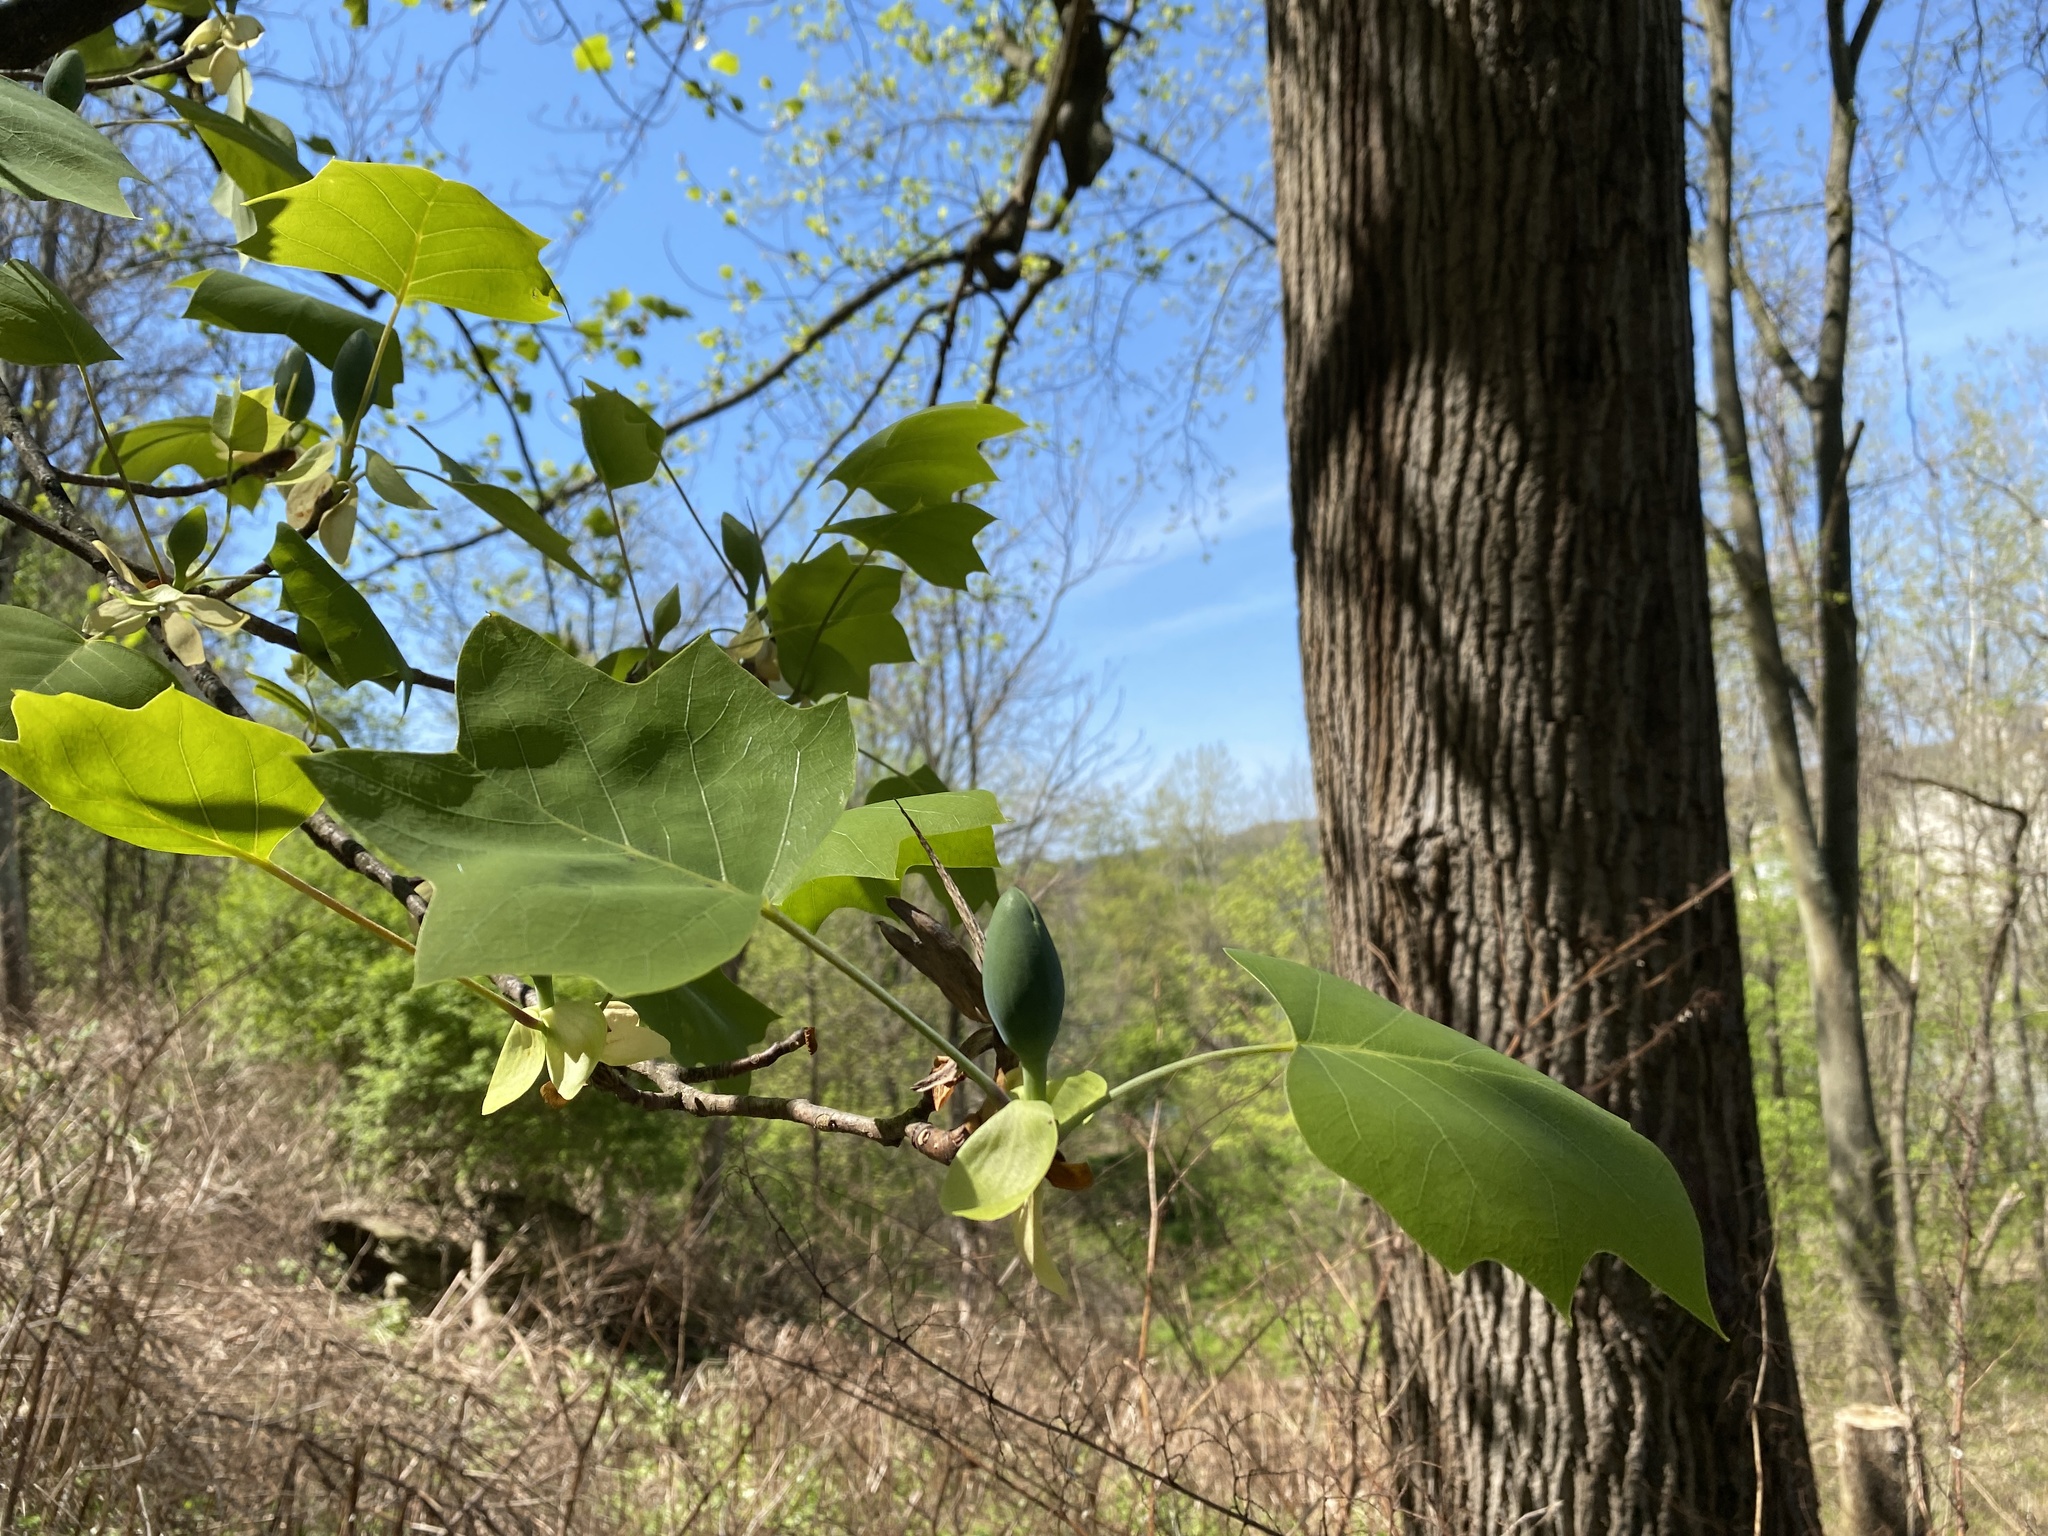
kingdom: Plantae
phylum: Tracheophyta
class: Magnoliopsida
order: Magnoliales
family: Magnoliaceae
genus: Liriodendron
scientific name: Liriodendron tulipifera
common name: Tulip tree
